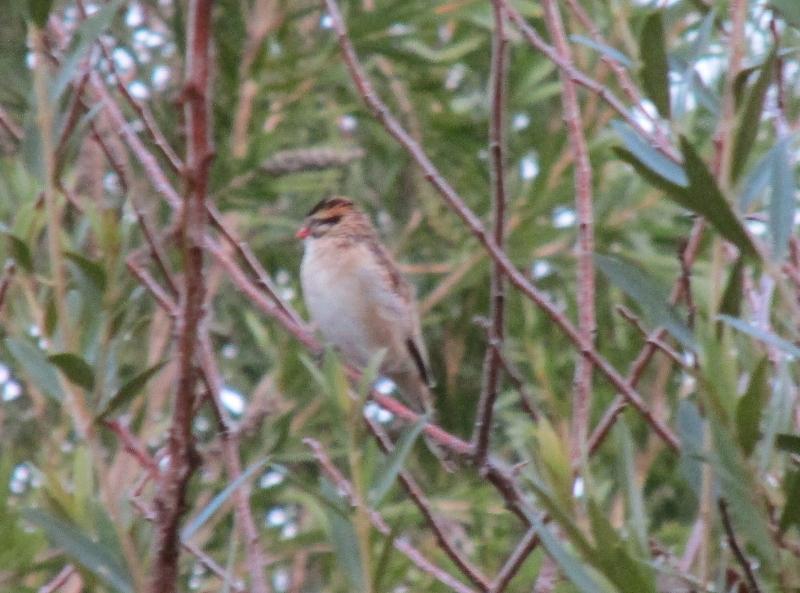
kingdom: Animalia
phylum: Chordata
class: Aves
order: Passeriformes
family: Viduidae
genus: Vidua
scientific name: Vidua macroura
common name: Pin-tailed whydah
